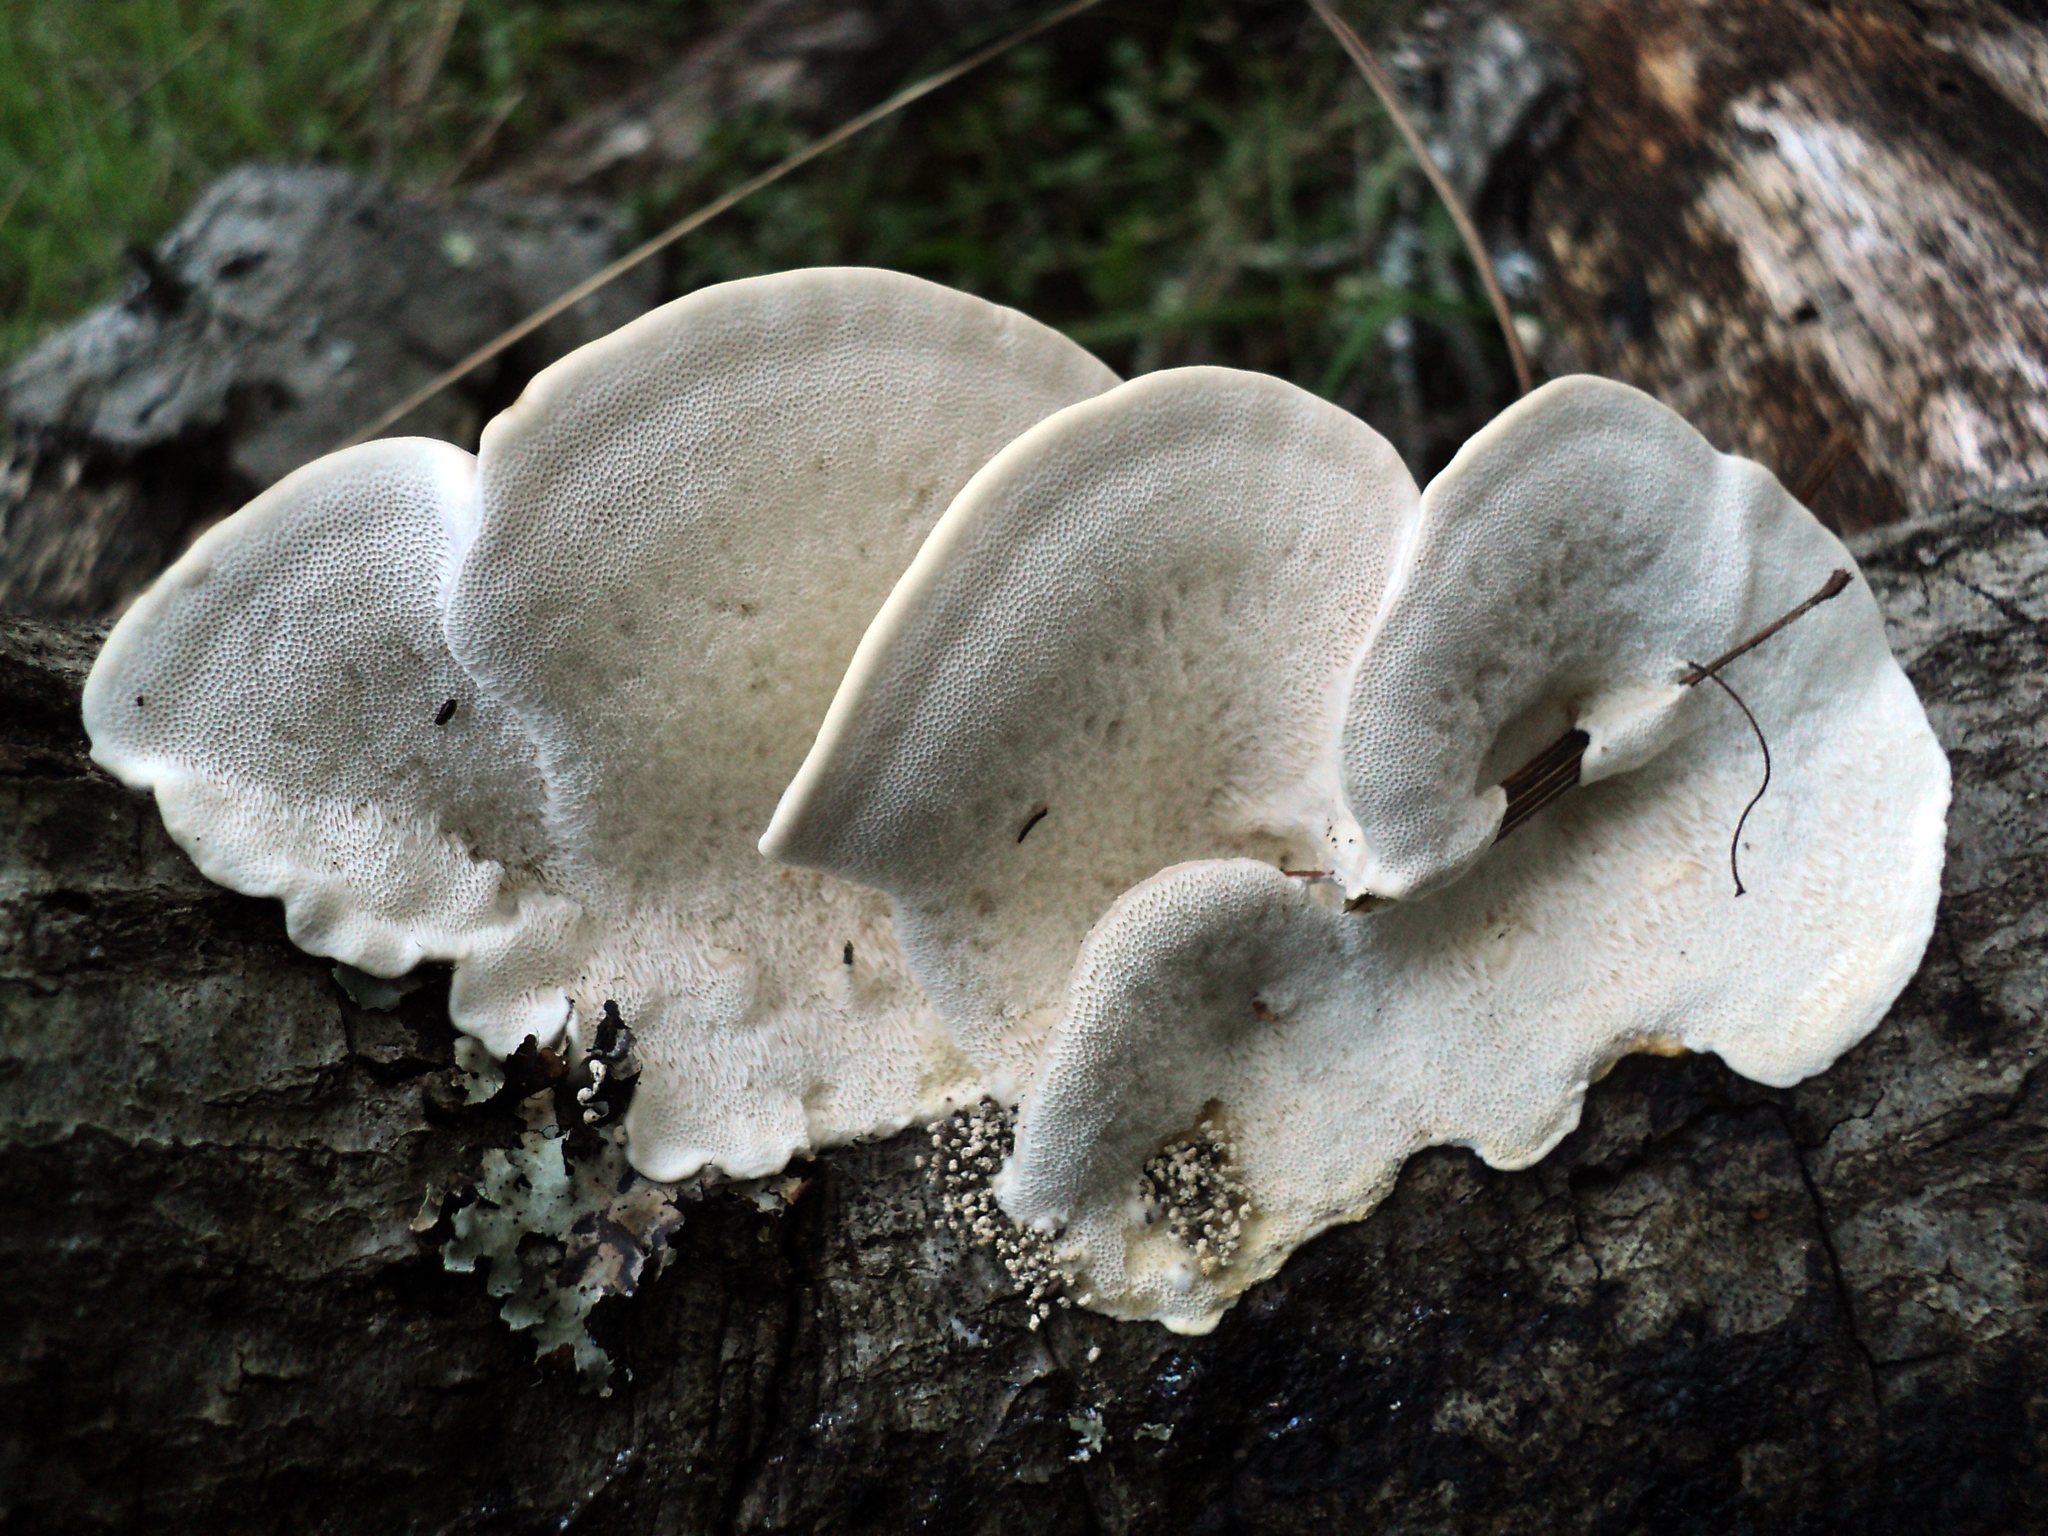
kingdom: Fungi
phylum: Basidiomycota
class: Agaricomycetes
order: Polyporales
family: Polyporaceae
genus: Trametes
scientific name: Trametes hirsuta
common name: Hairy bracket
